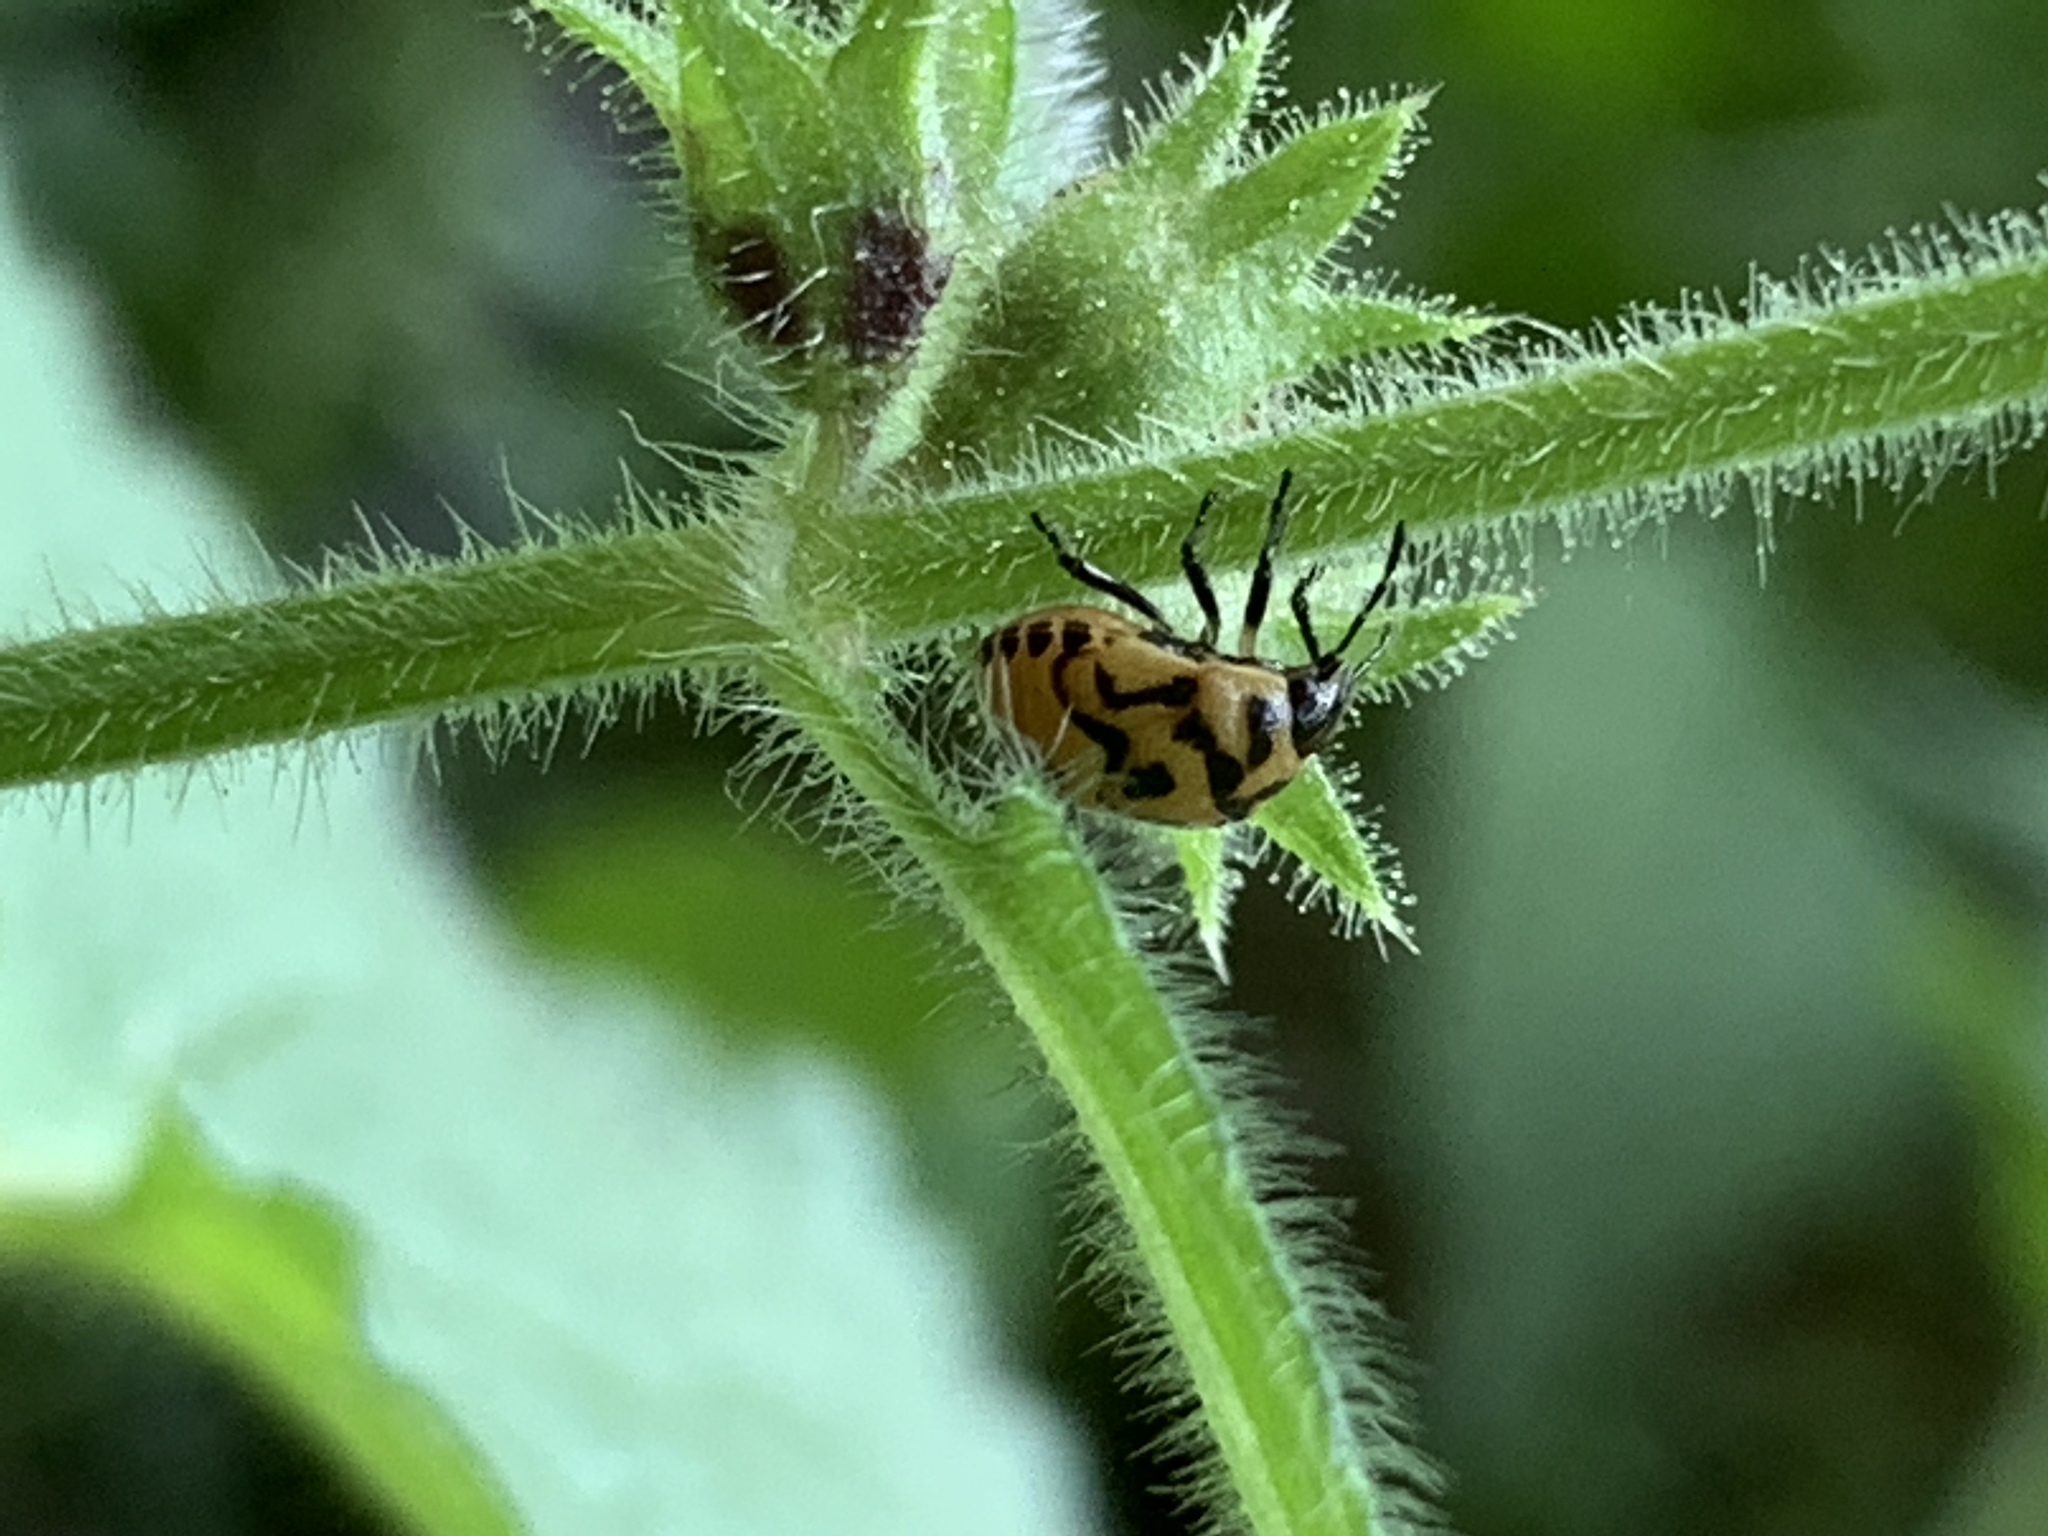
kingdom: Animalia
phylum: Arthropoda
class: Insecta
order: Hemiptera
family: Pentatomidae
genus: Cosmopepla
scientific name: Cosmopepla lintneriana
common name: Twice-stabbed stink bug
